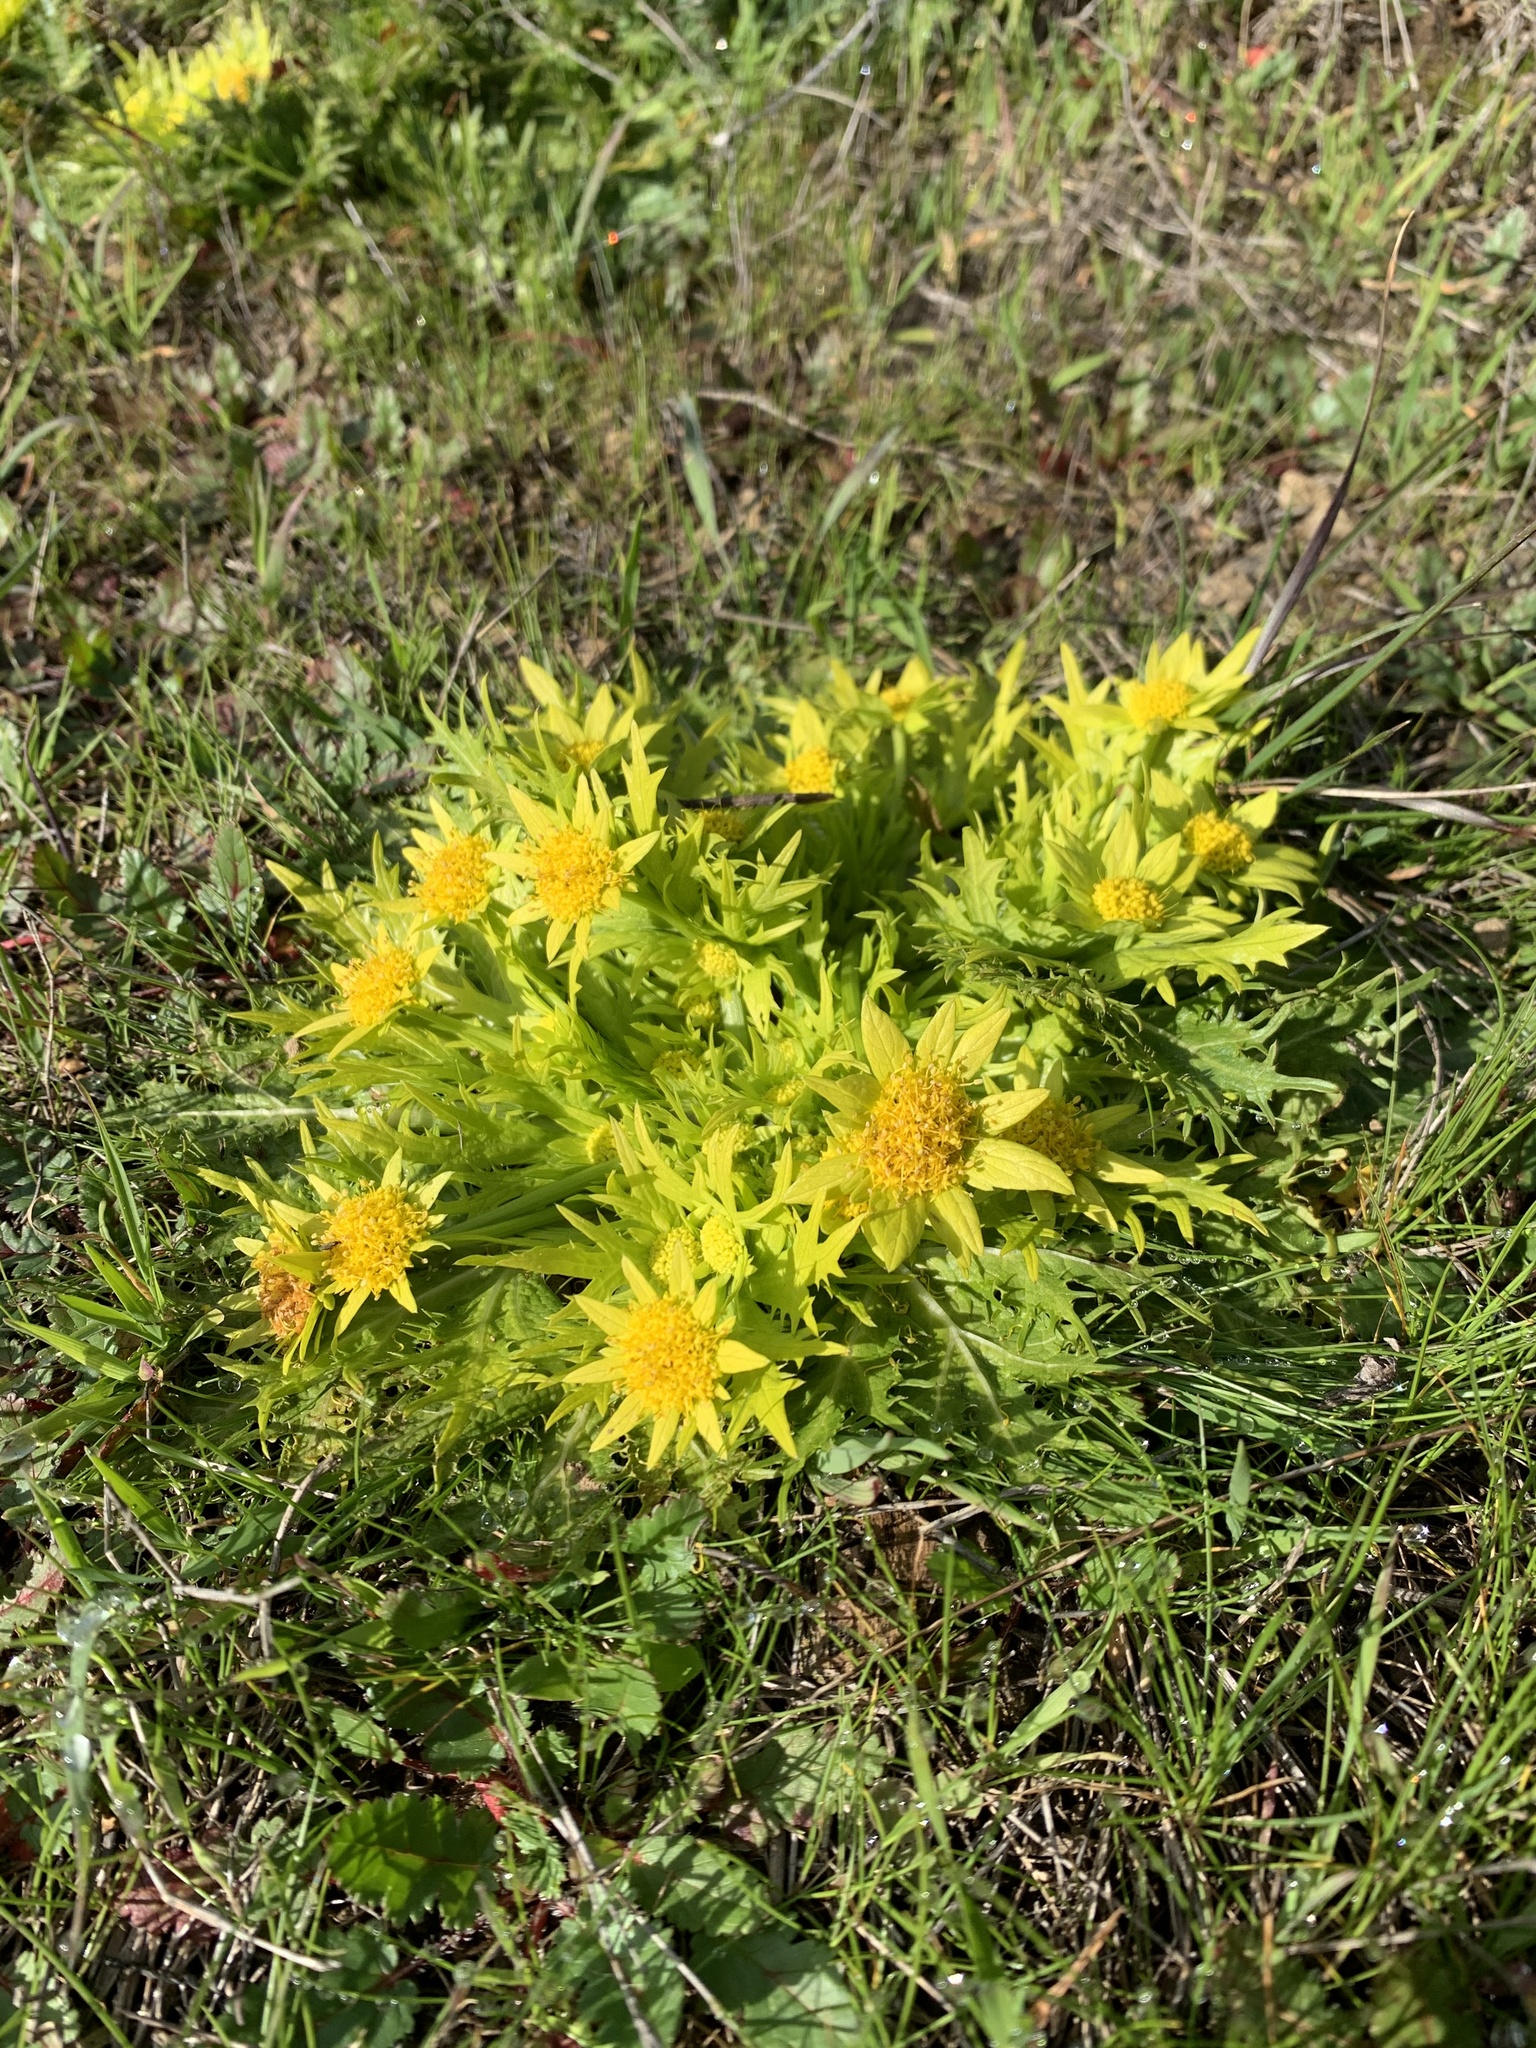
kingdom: Plantae
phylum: Tracheophyta
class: Magnoliopsida
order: Apiales
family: Apiaceae
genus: Sanicula
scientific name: Sanicula arctopoides
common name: Footsteps-of-spring
